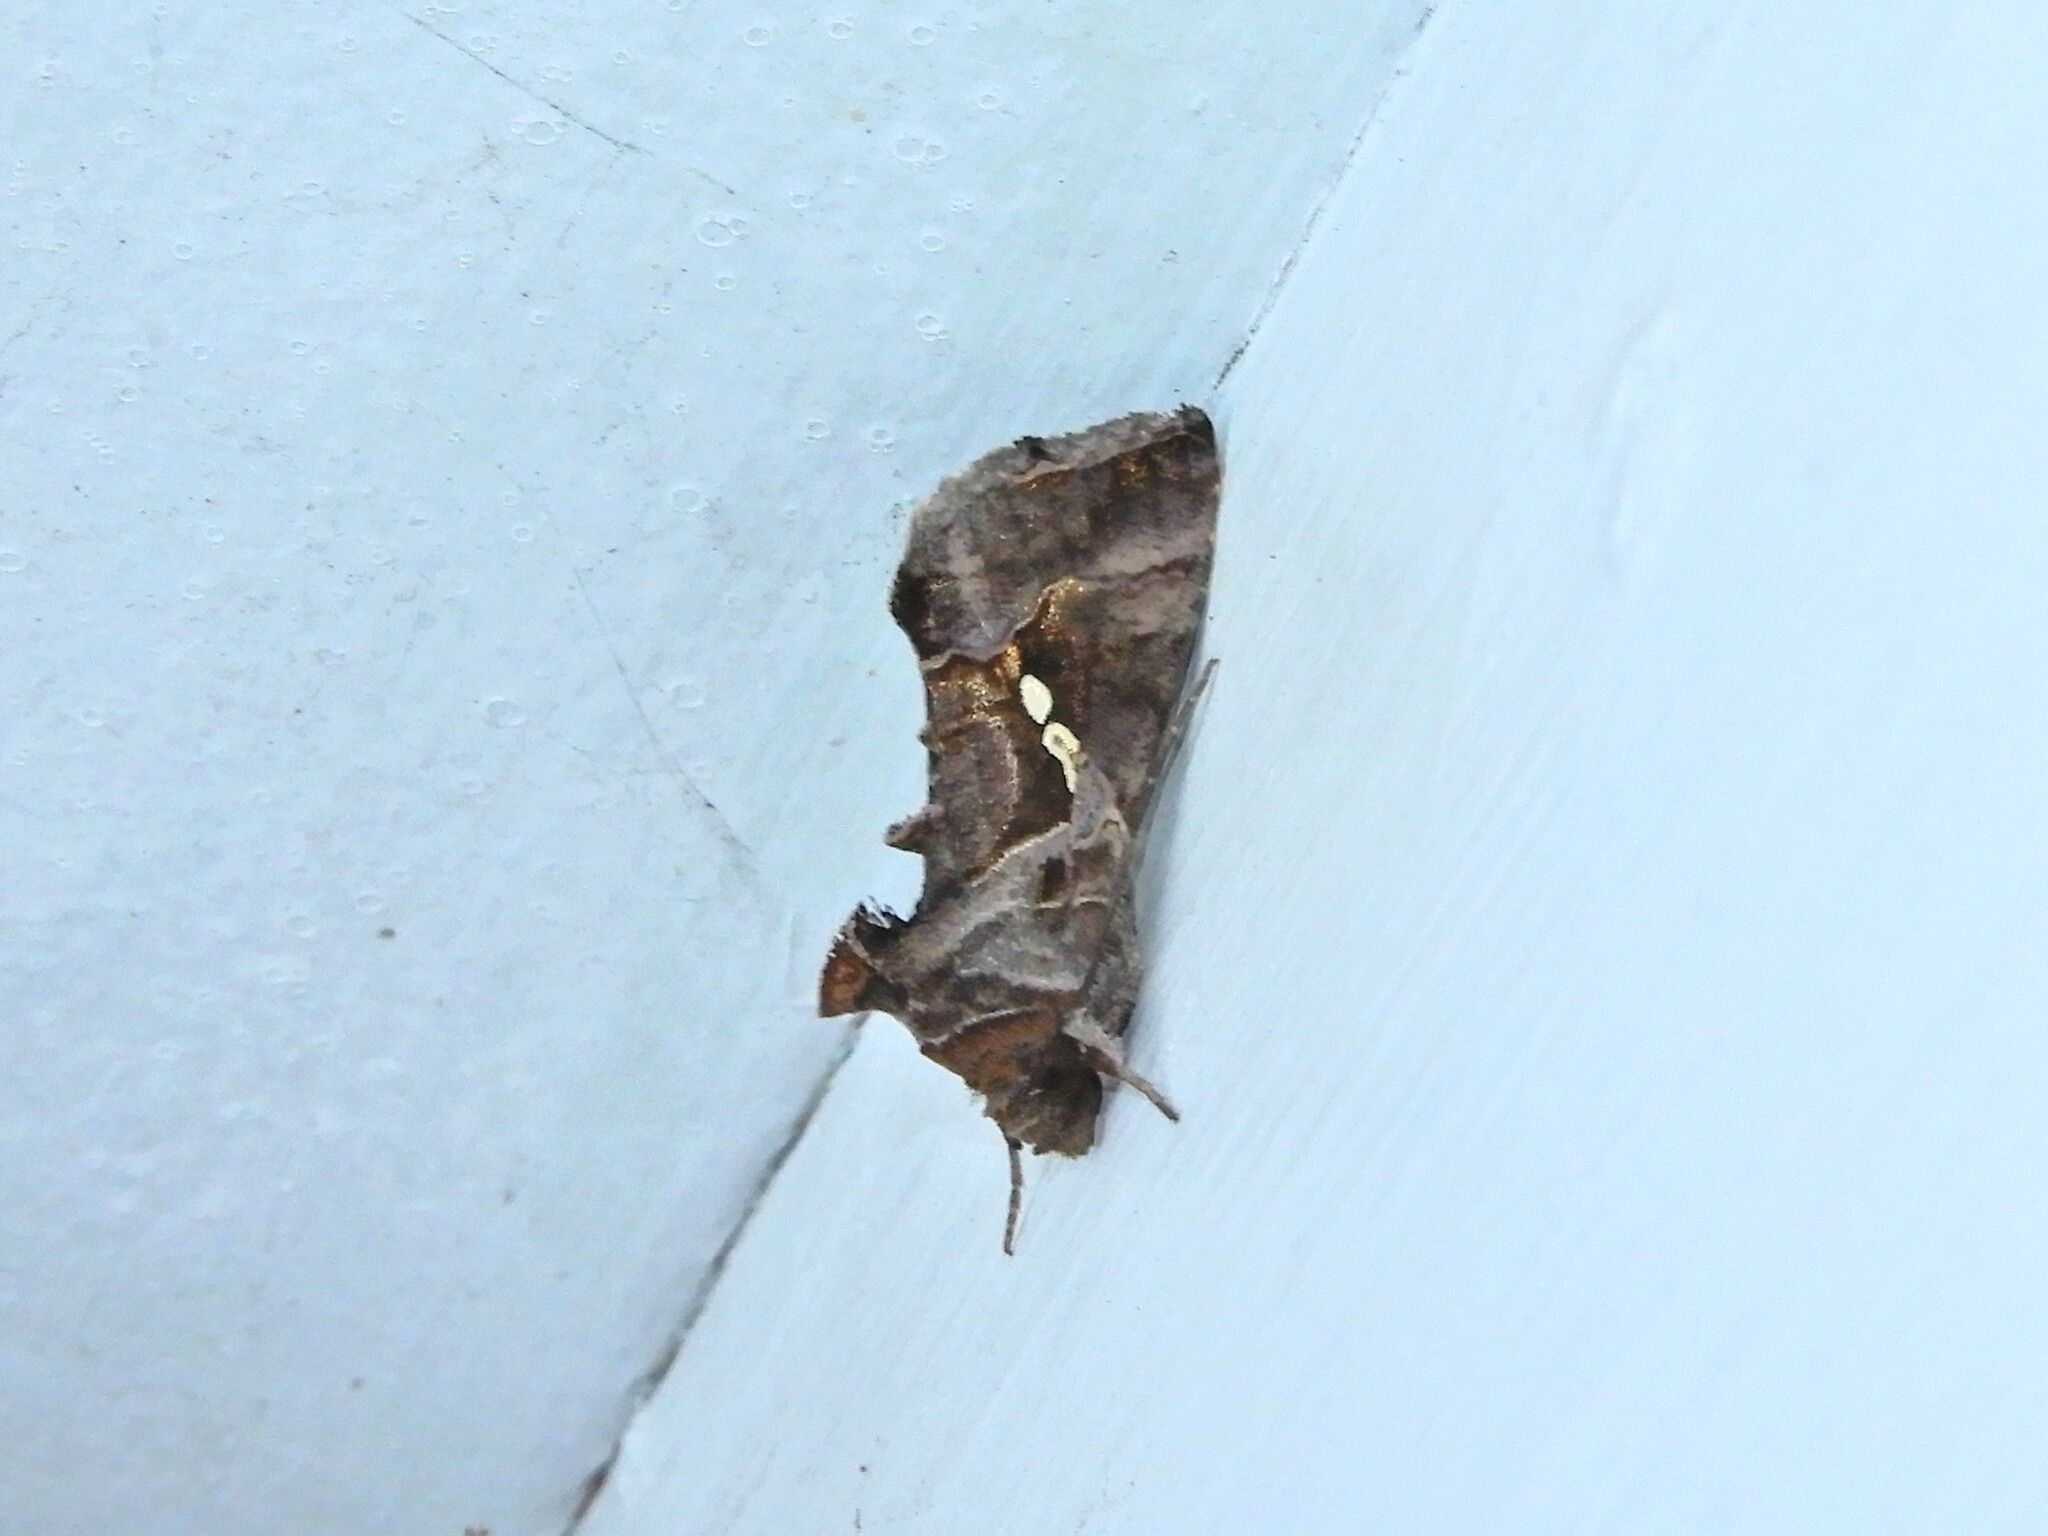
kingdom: Animalia
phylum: Arthropoda
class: Insecta
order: Lepidoptera
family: Noctuidae
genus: Chrysodeixis
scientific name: Chrysodeixis eriosoma
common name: Green garden looper
